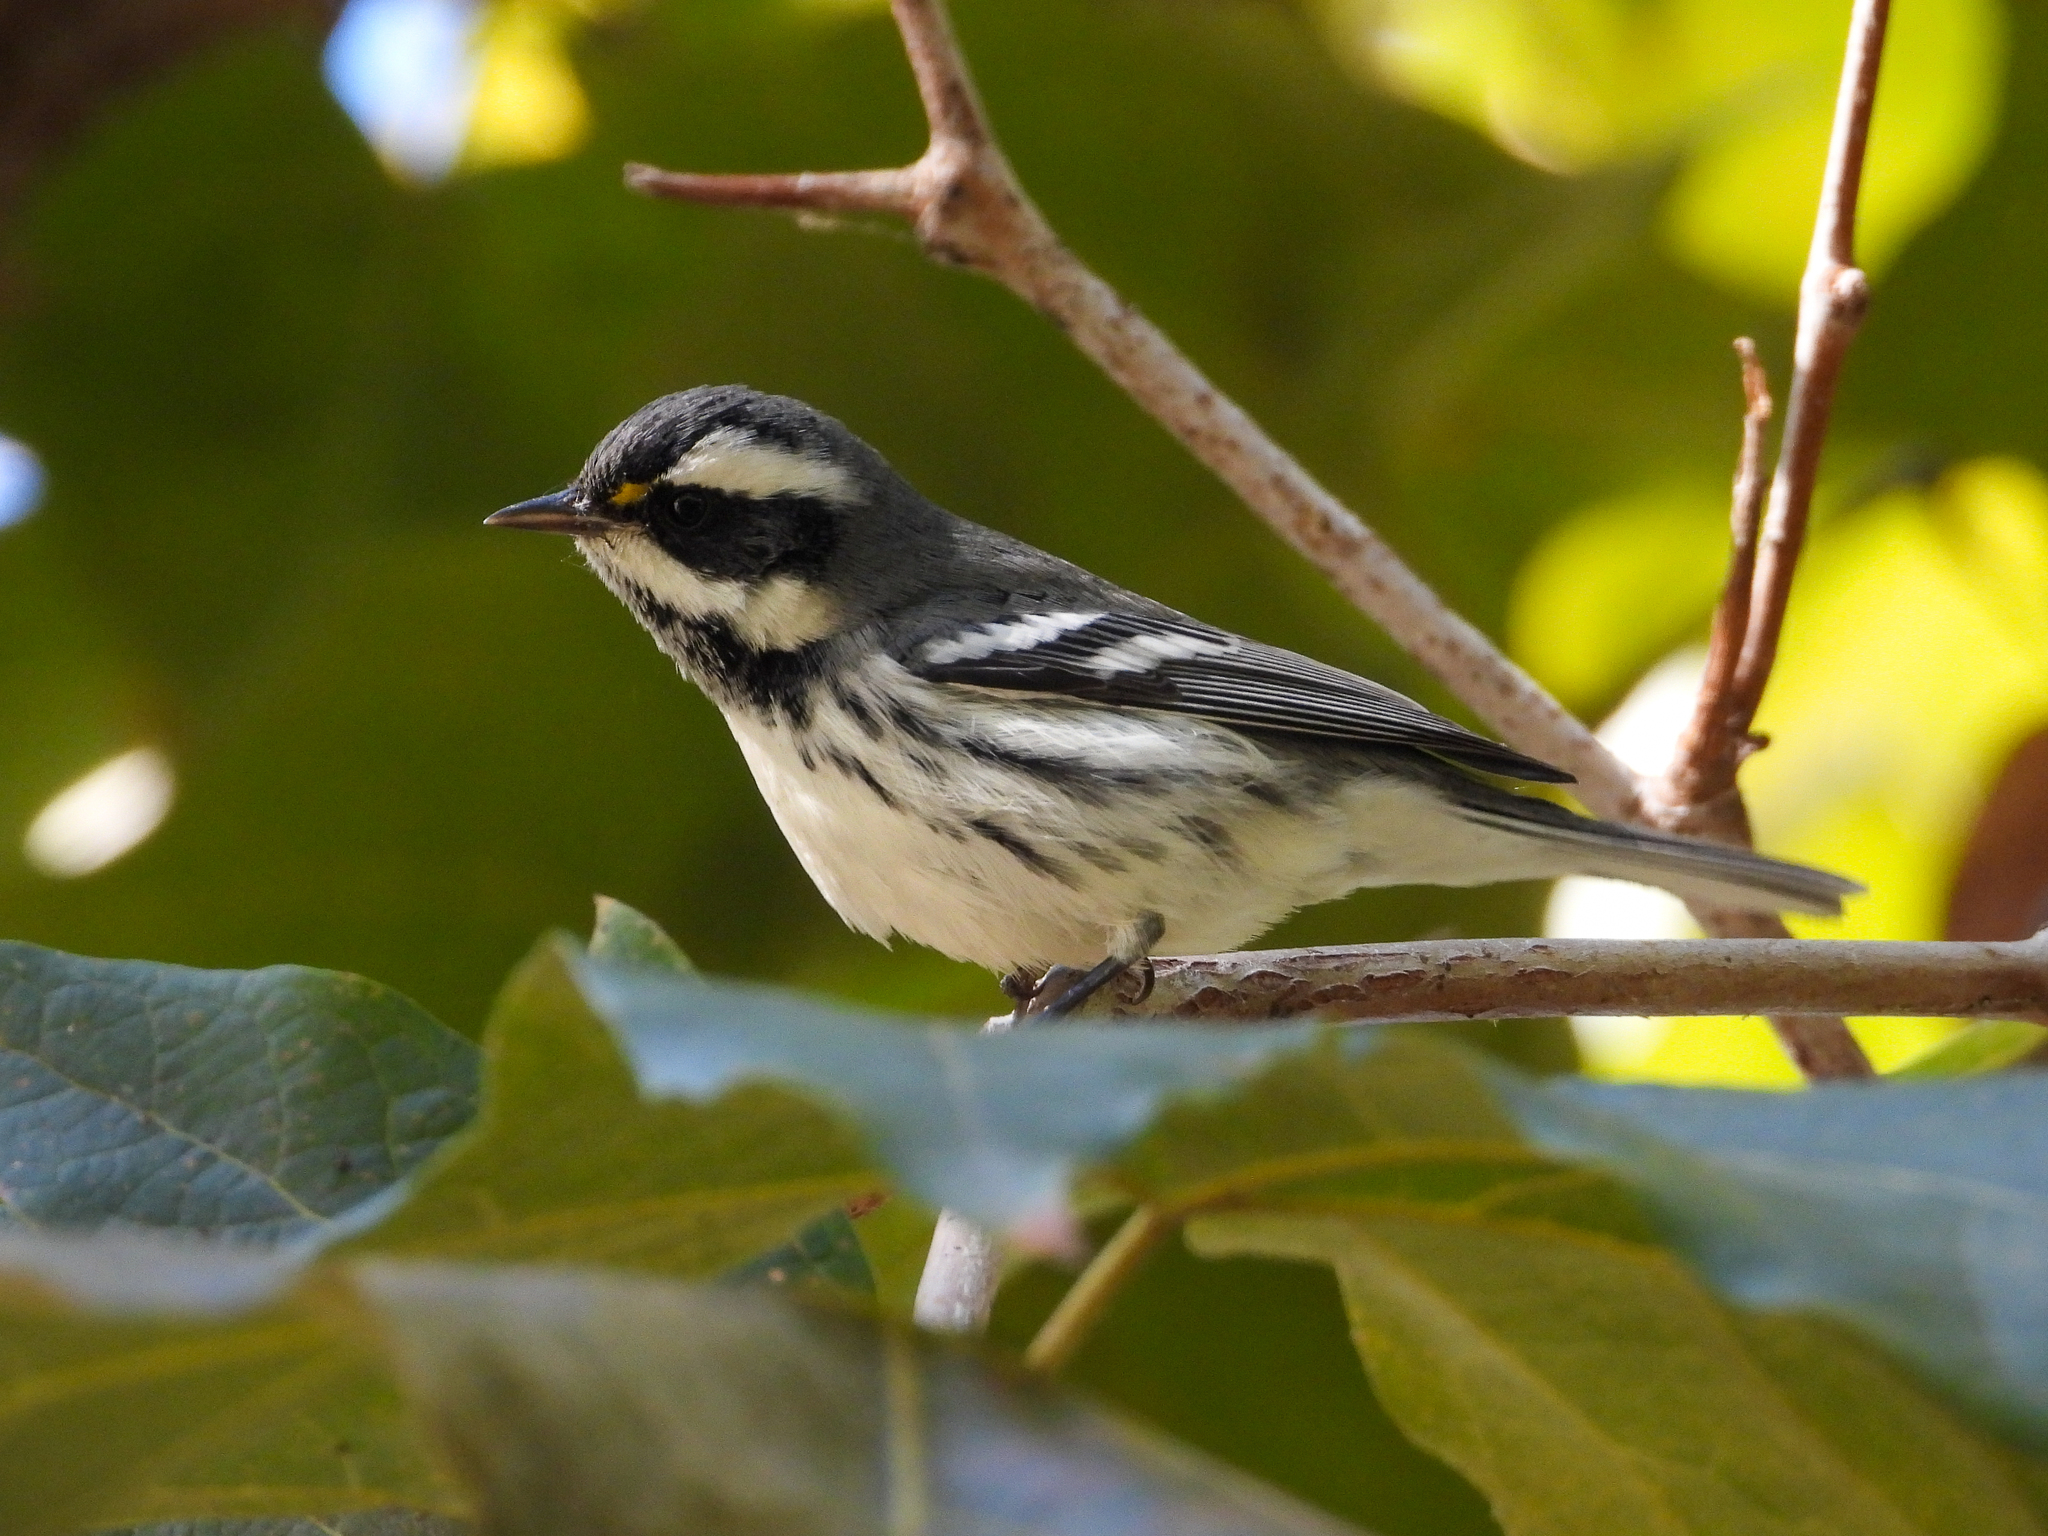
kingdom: Animalia
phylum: Chordata
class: Aves
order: Passeriformes
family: Parulidae
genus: Setophaga
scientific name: Setophaga nigrescens
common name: Black-throated gray warbler
